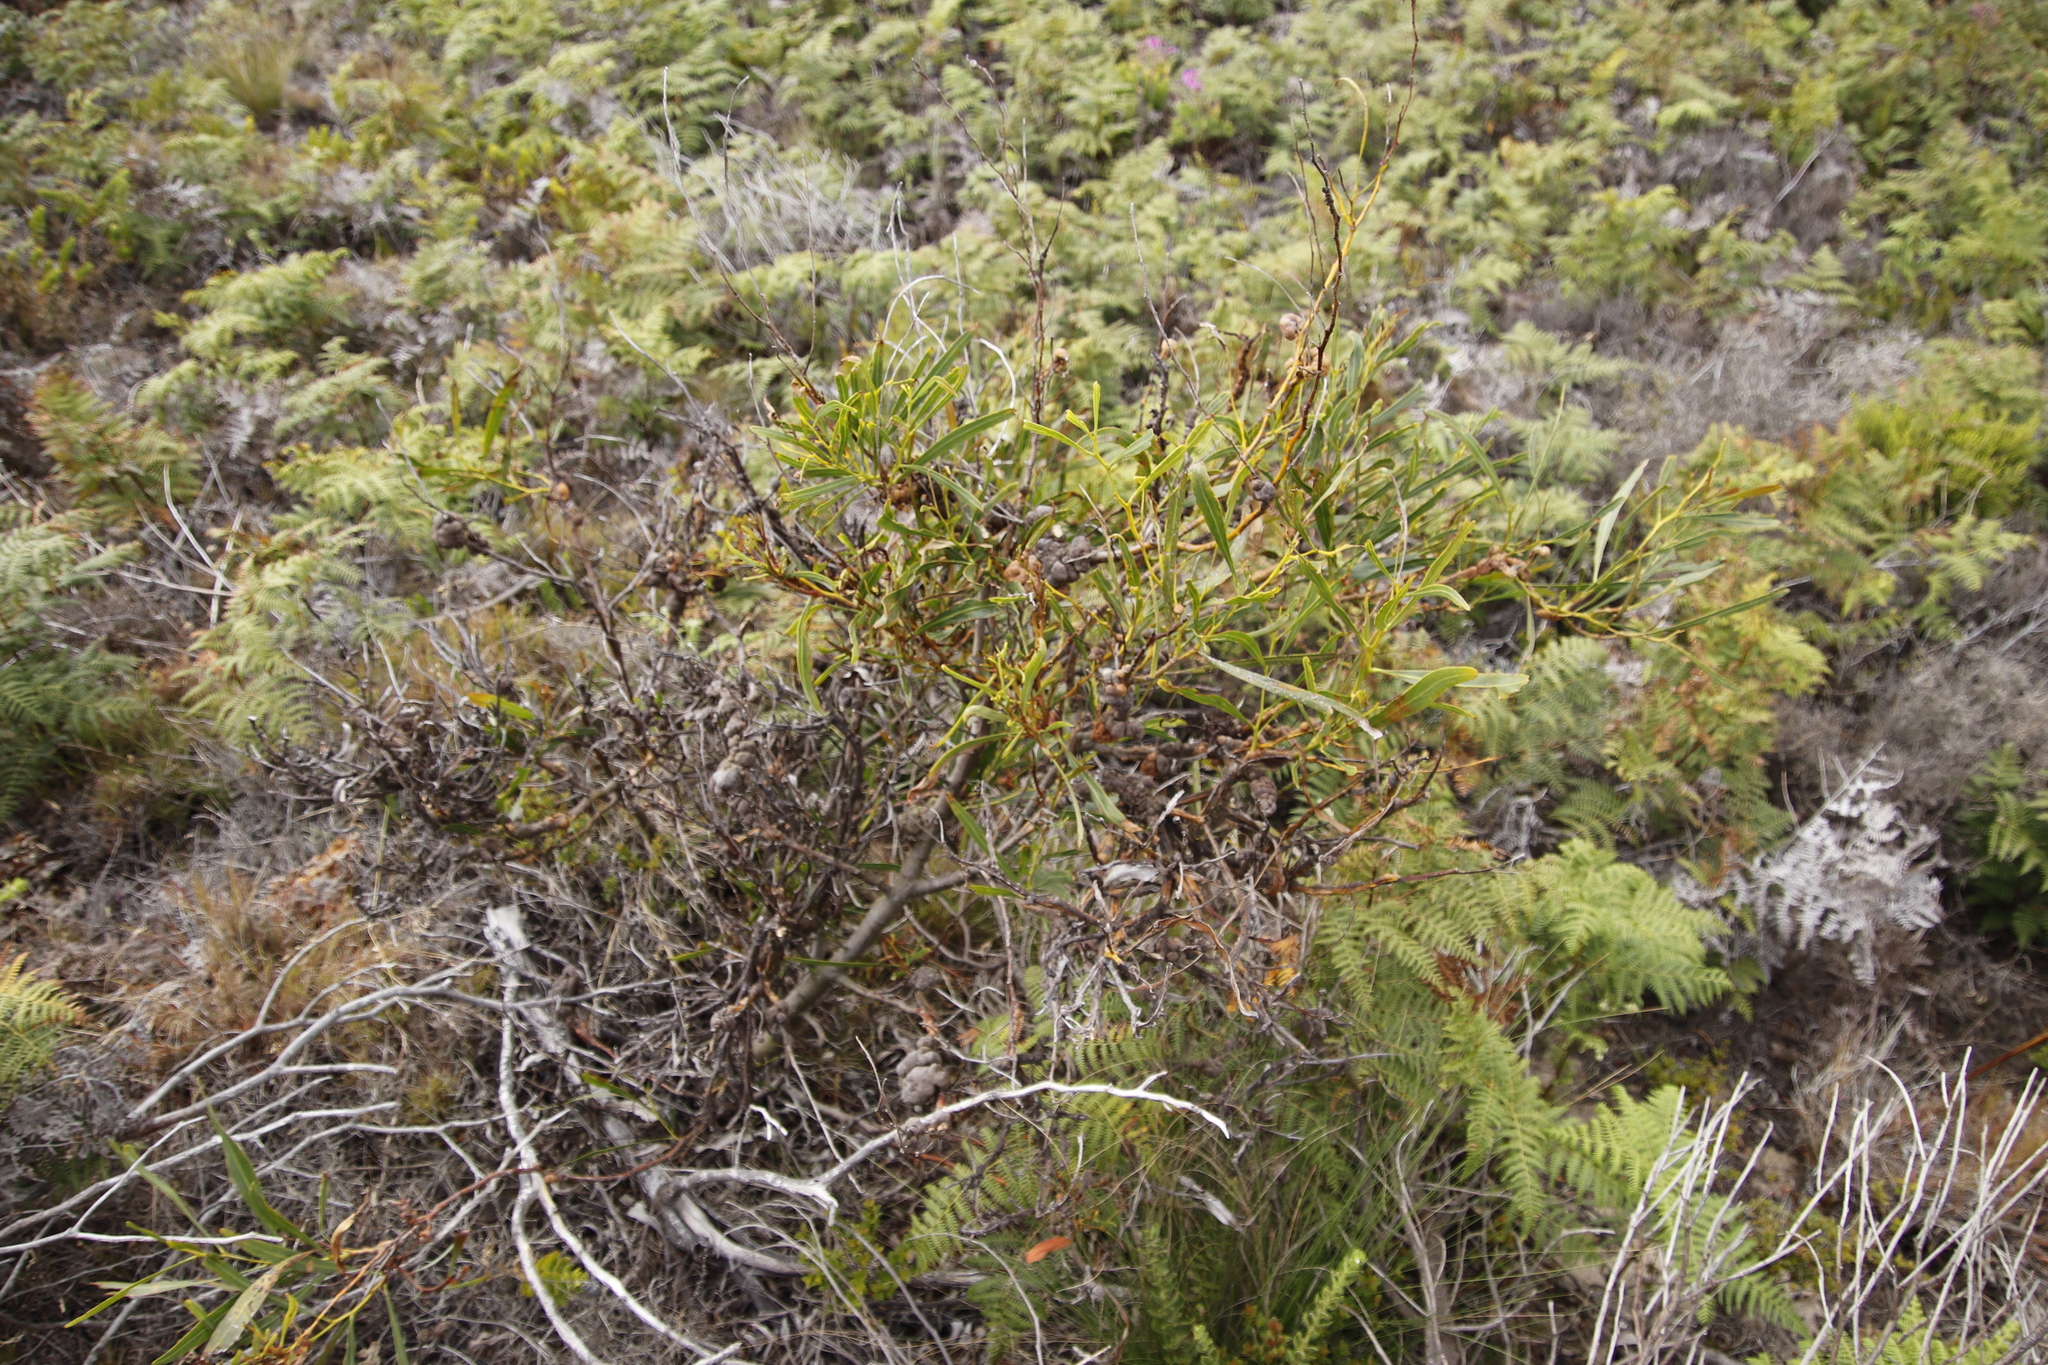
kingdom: Plantae
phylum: Tracheophyta
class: Magnoliopsida
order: Fabales
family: Fabaceae
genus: Acacia
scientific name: Acacia saligna
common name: Orange wattle
